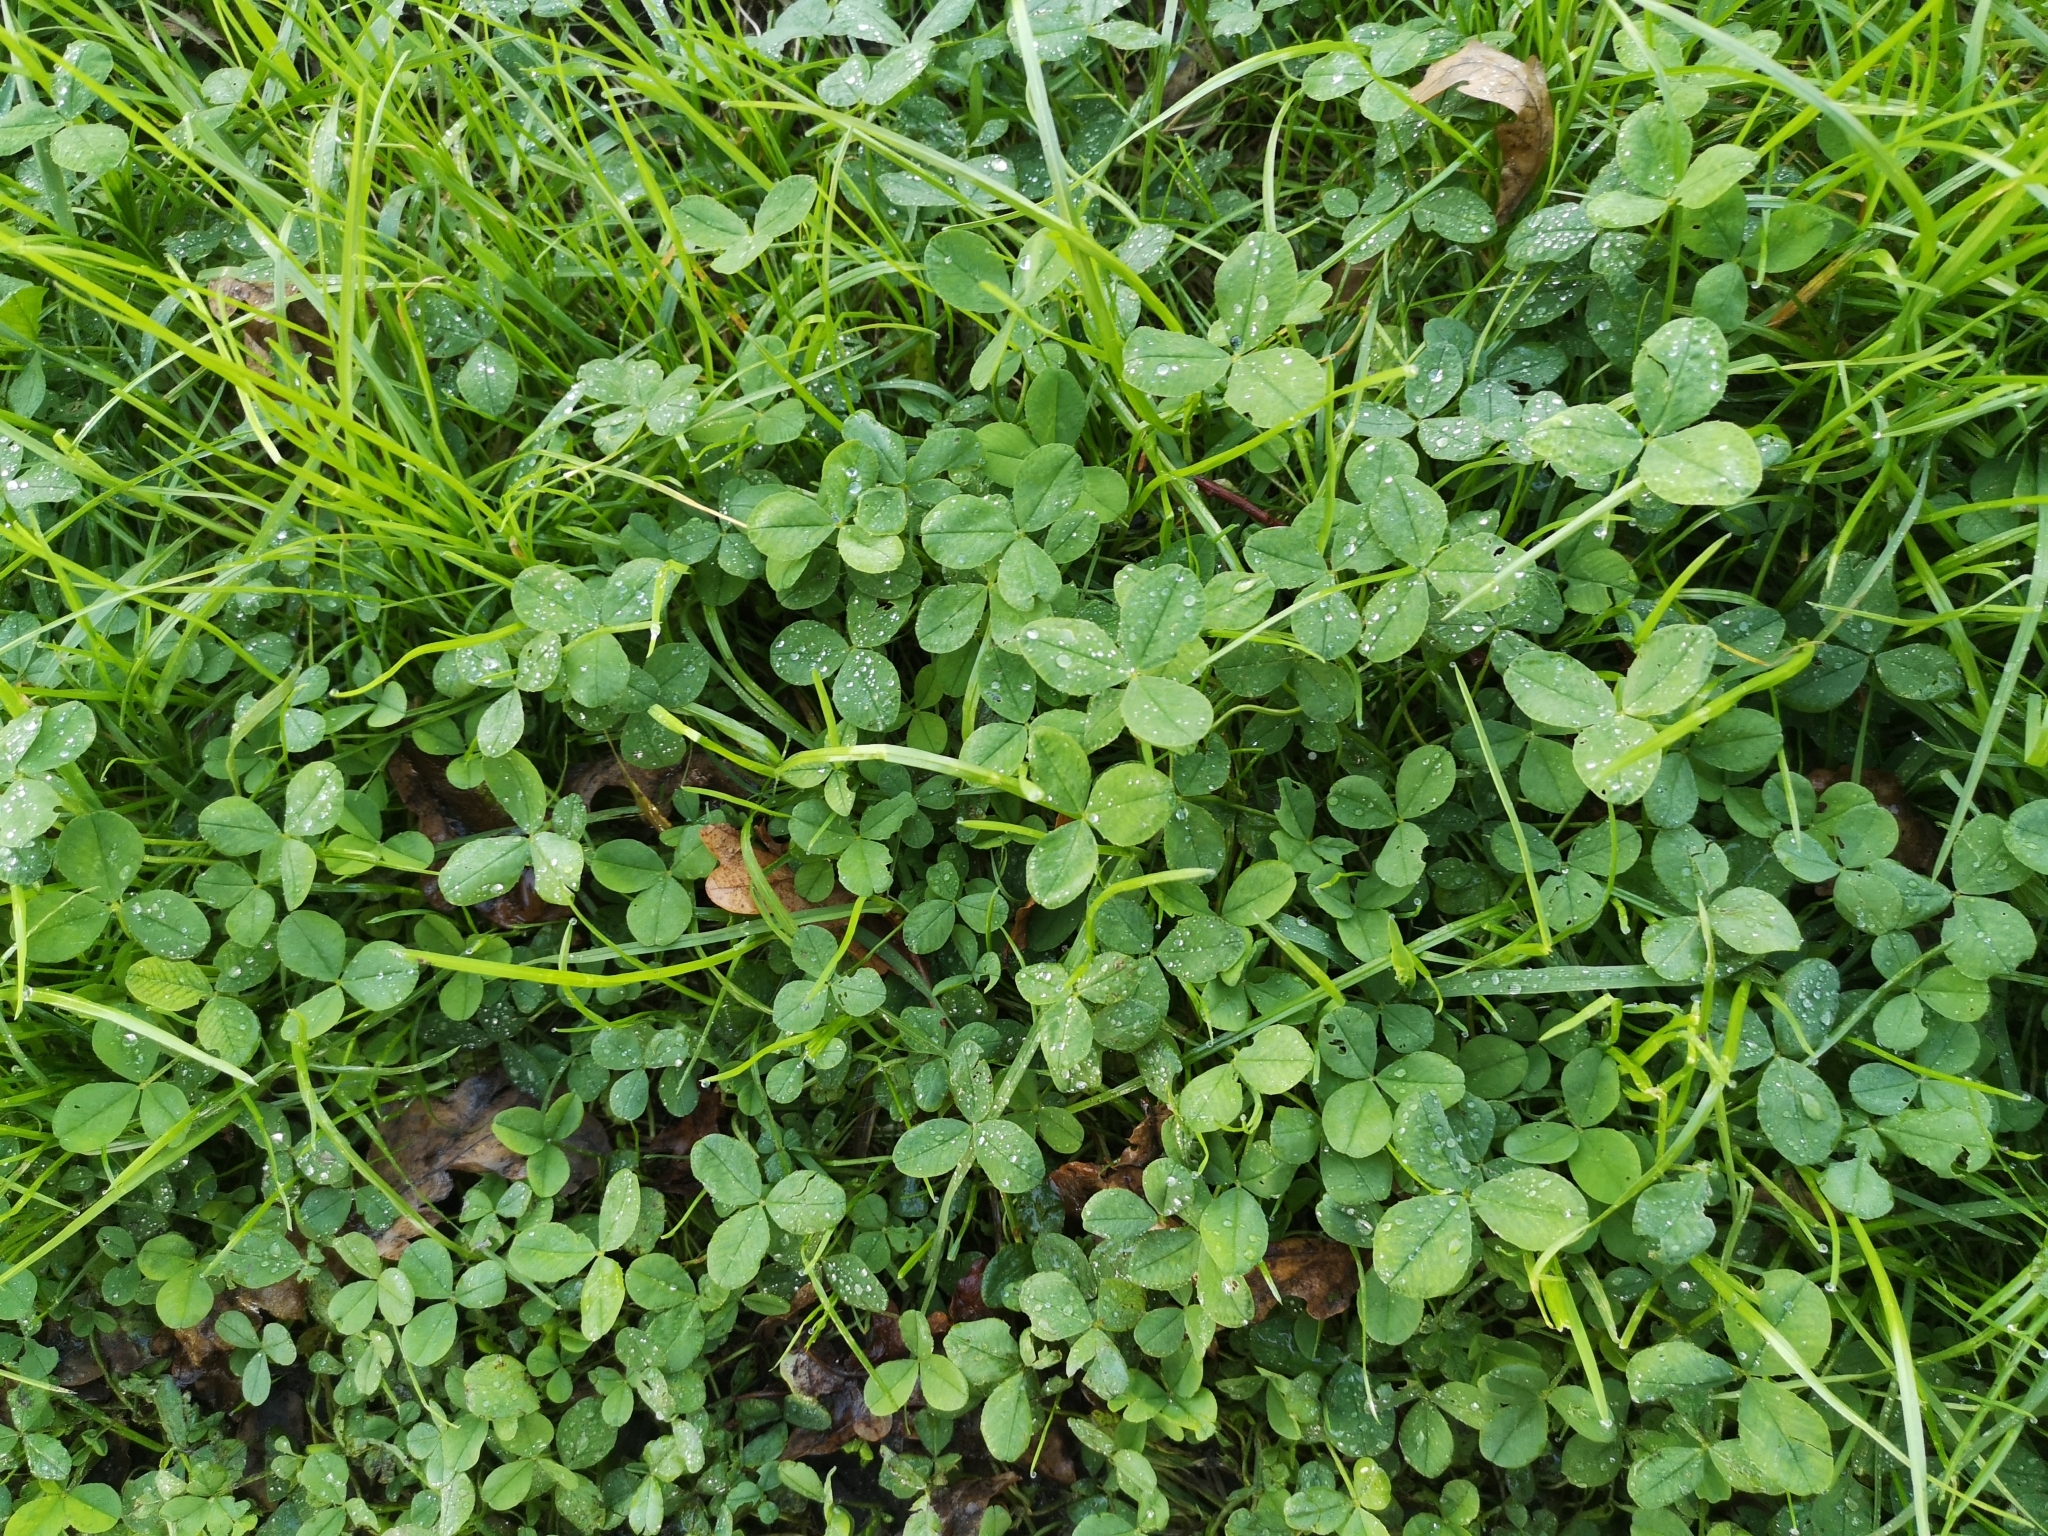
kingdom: Plantae
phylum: Tracheophyta
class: Magnoliopsida
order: Fabales
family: Fabaceae
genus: Trifolium
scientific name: Trifolium repens
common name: White clover
